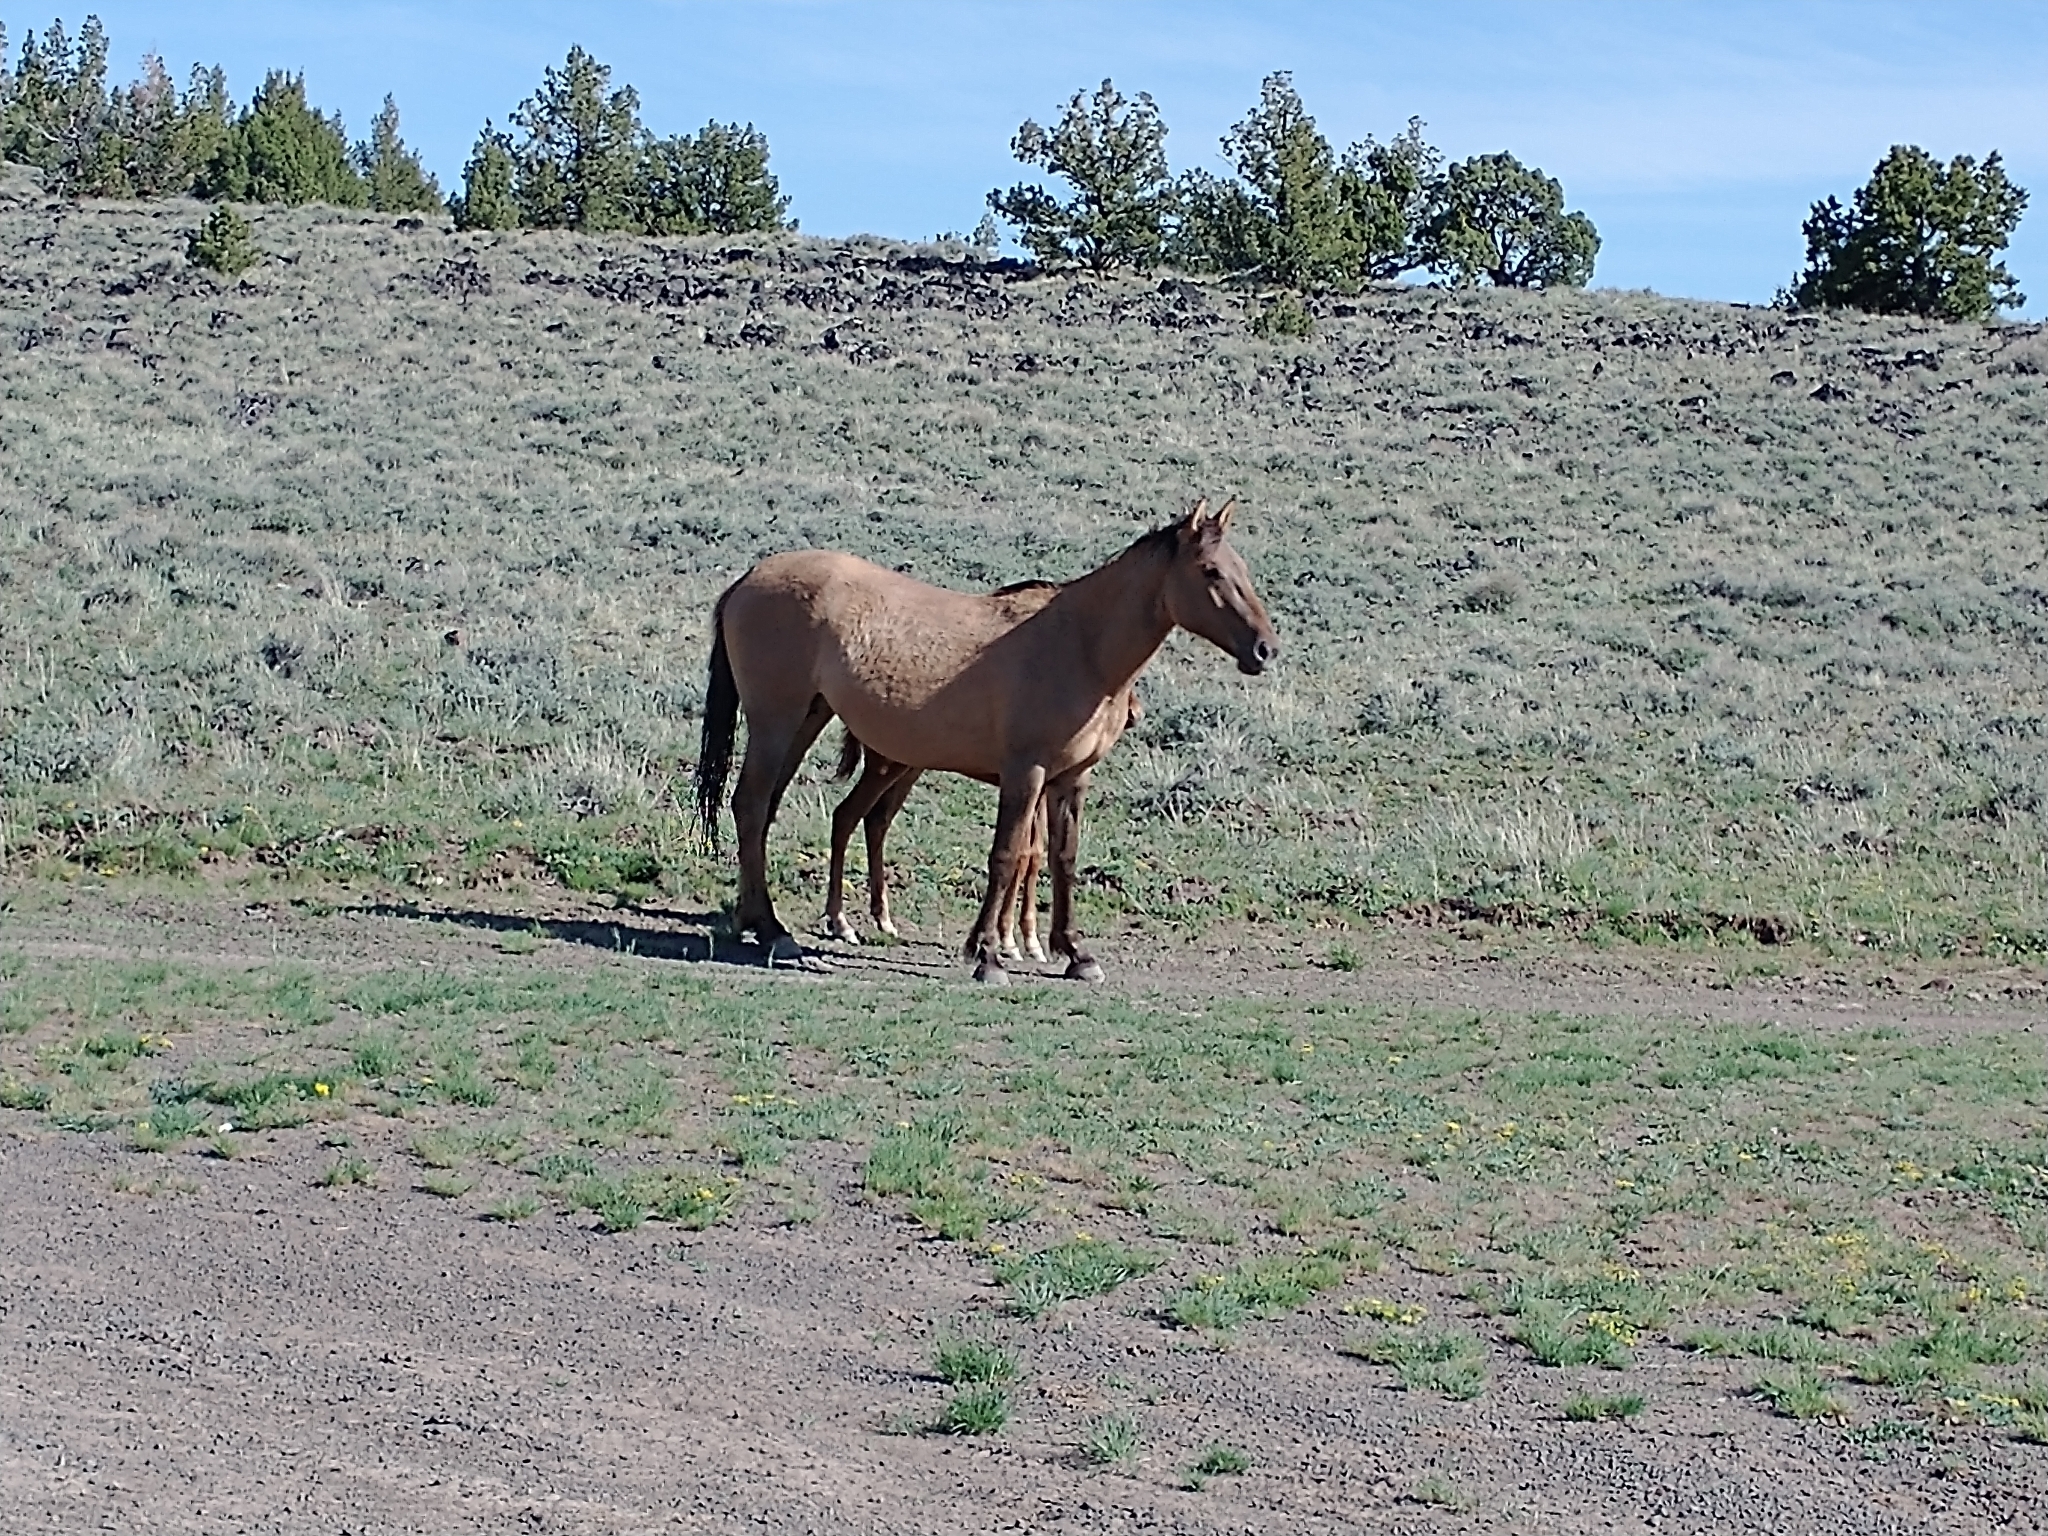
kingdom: Animalia
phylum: Chordata
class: Mammalia
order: Perissodactyla
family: Equidae
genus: Equus
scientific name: Equus caballus
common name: Horse
